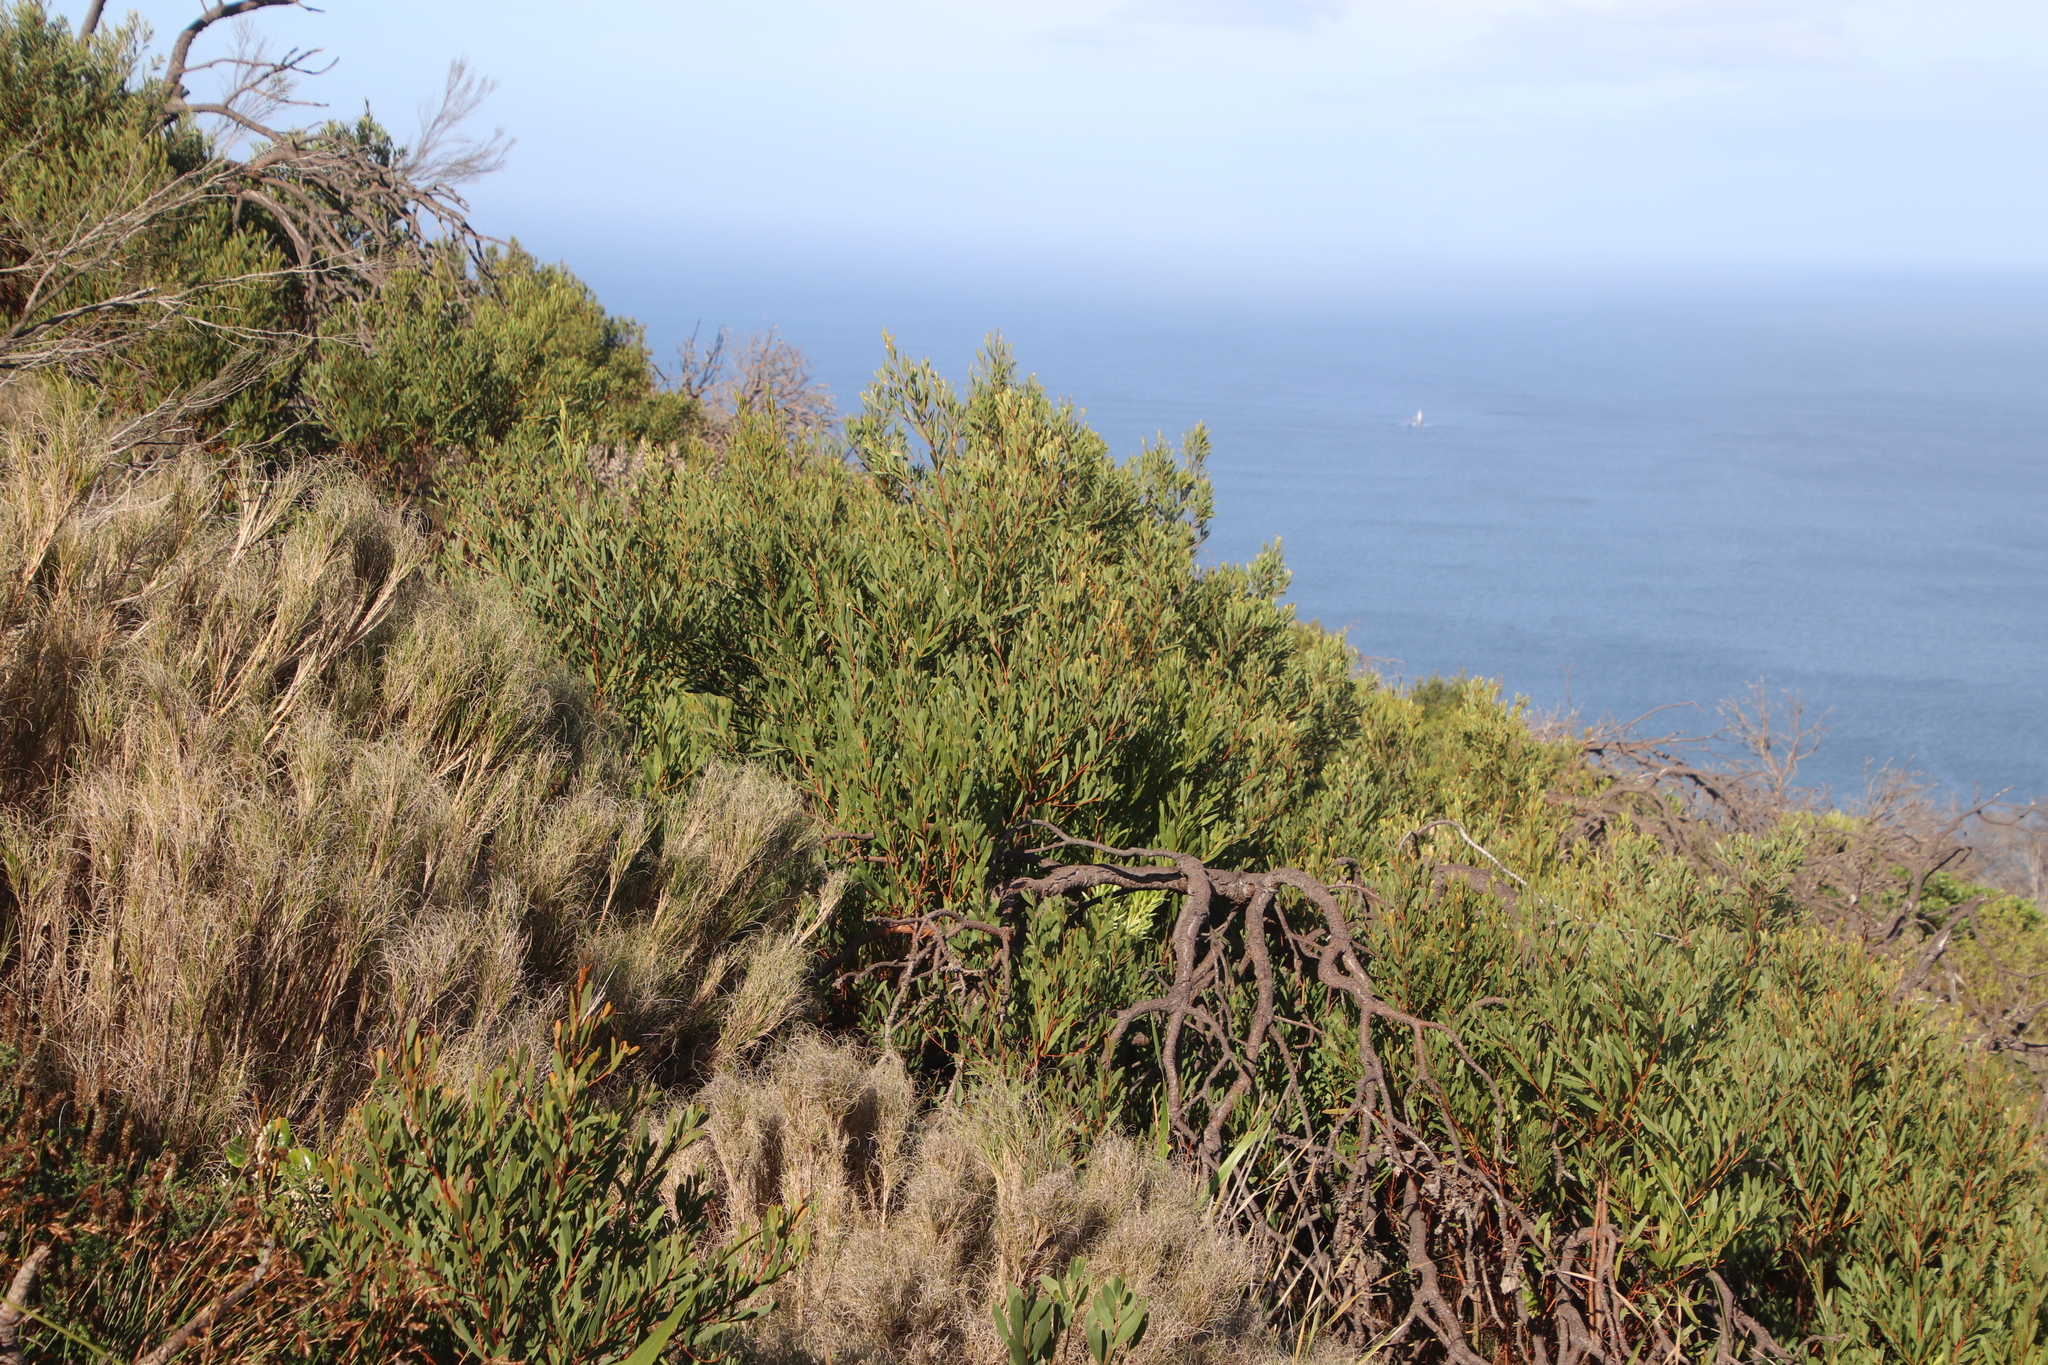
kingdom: Plantae
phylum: Tracheophyta
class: Magnoliopsida
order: Fabales
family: Fabaceae
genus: Acacia
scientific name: Acacia cyclops
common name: Coastal wattle
